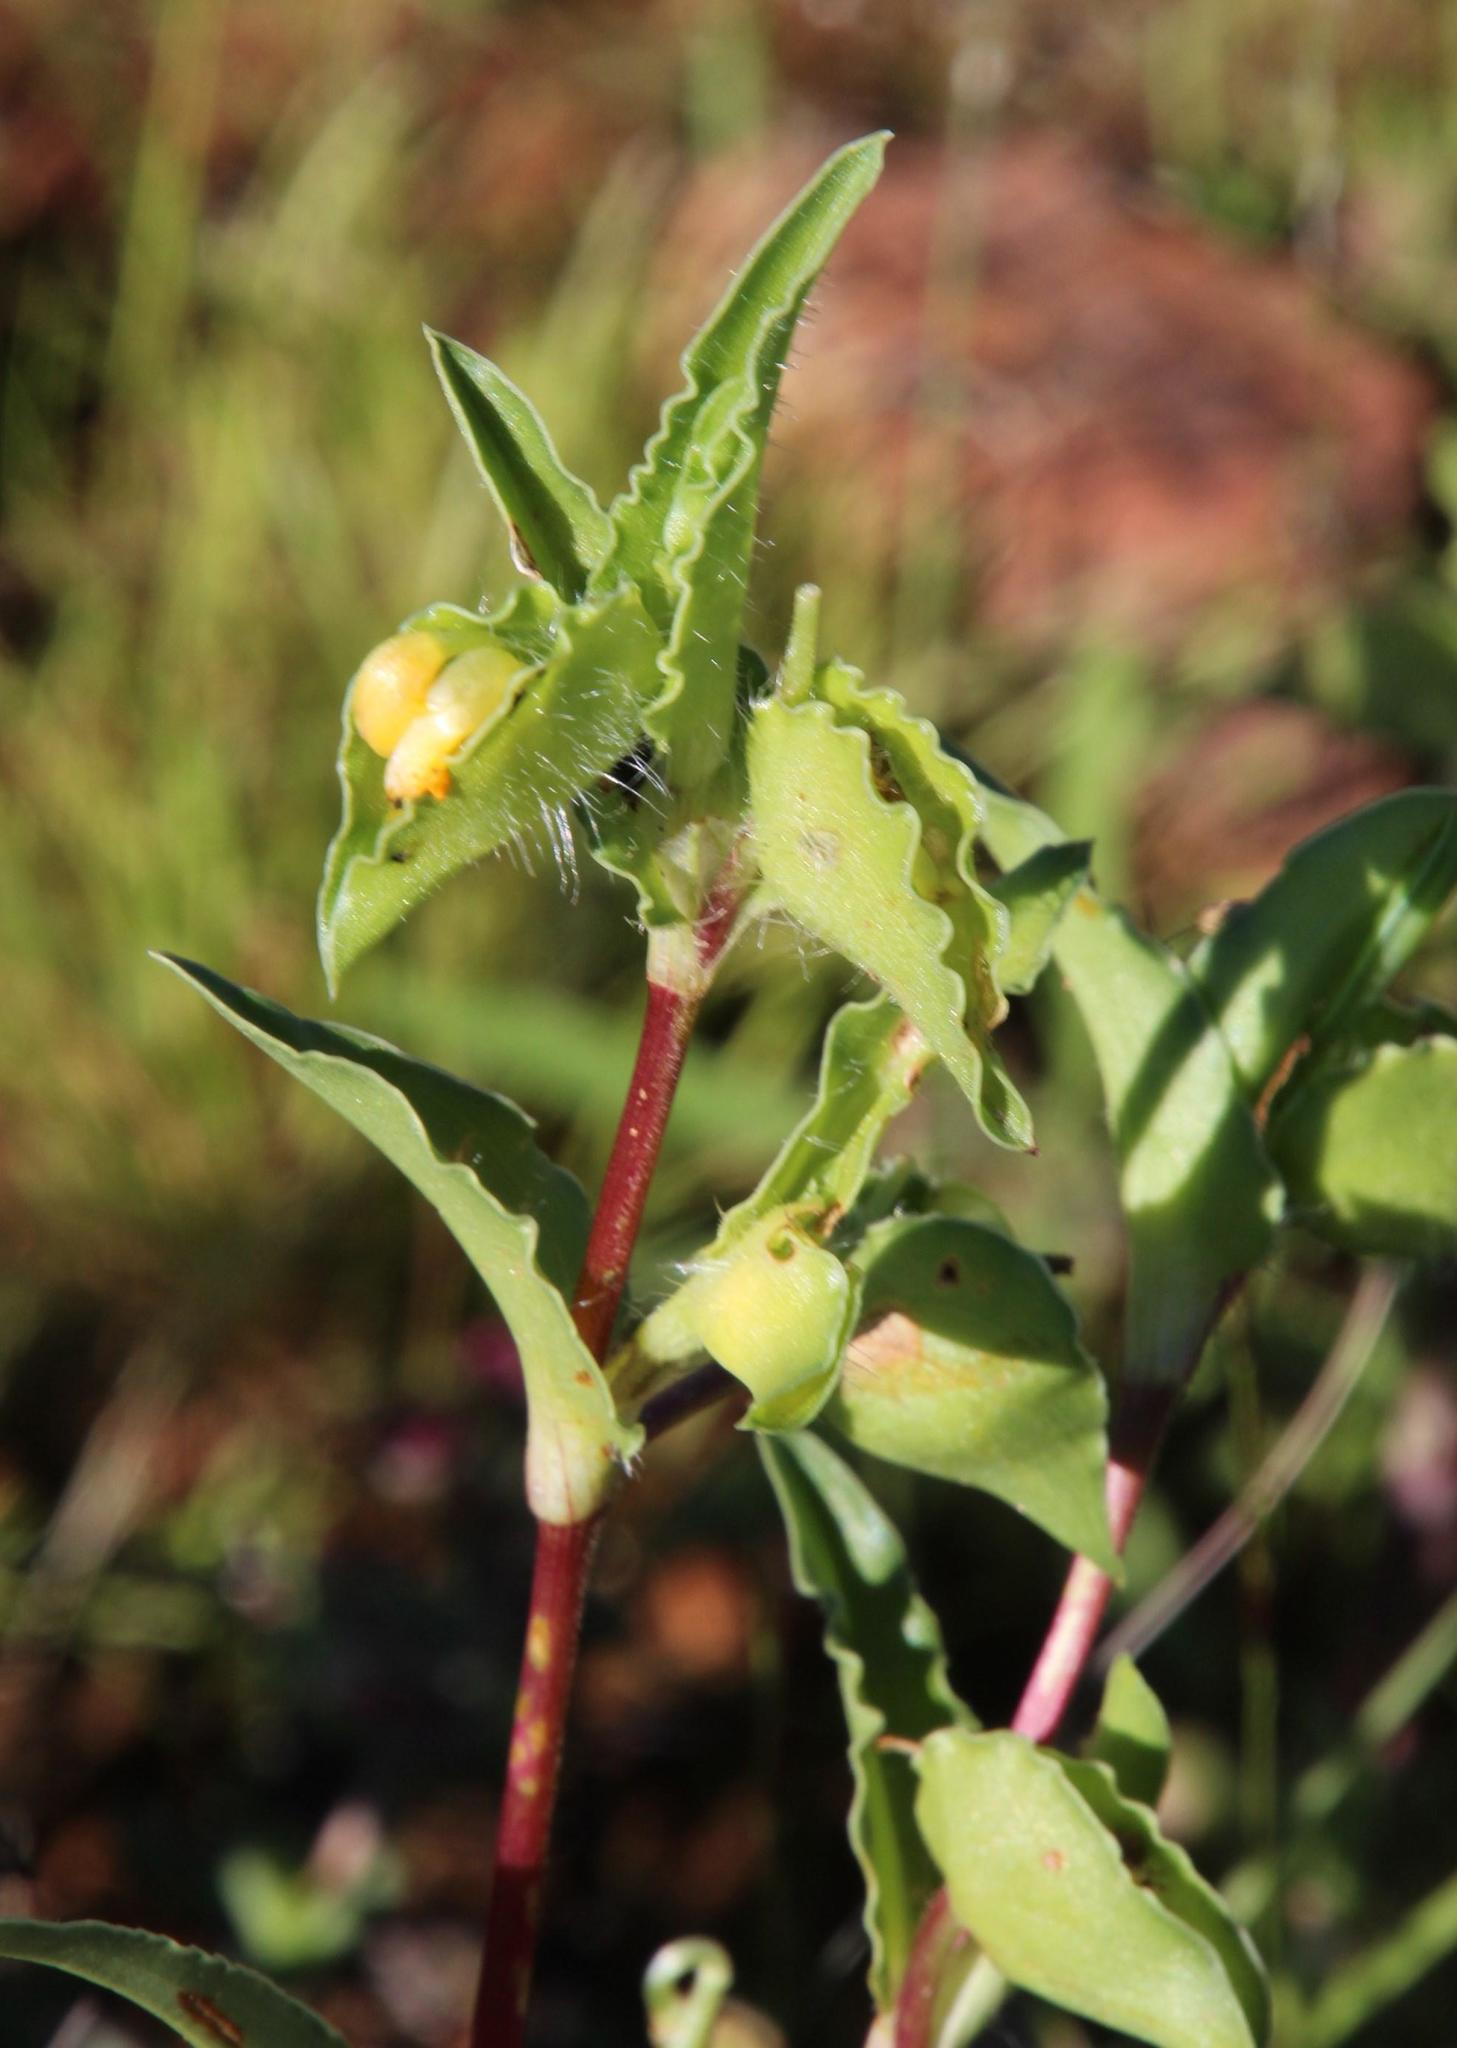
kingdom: Plantae
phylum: Tracheophyta
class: Liliopsida
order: Commelinales
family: Commelinaceae
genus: Commelina
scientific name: Commelina africana
